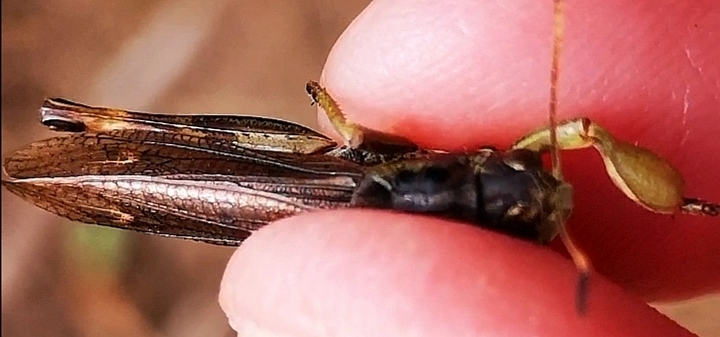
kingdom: Animalia
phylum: Arthropoda
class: Insecta
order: Orthoptera
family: Acrididae
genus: Gomphocerus
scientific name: Gomphocerus sibiricus
